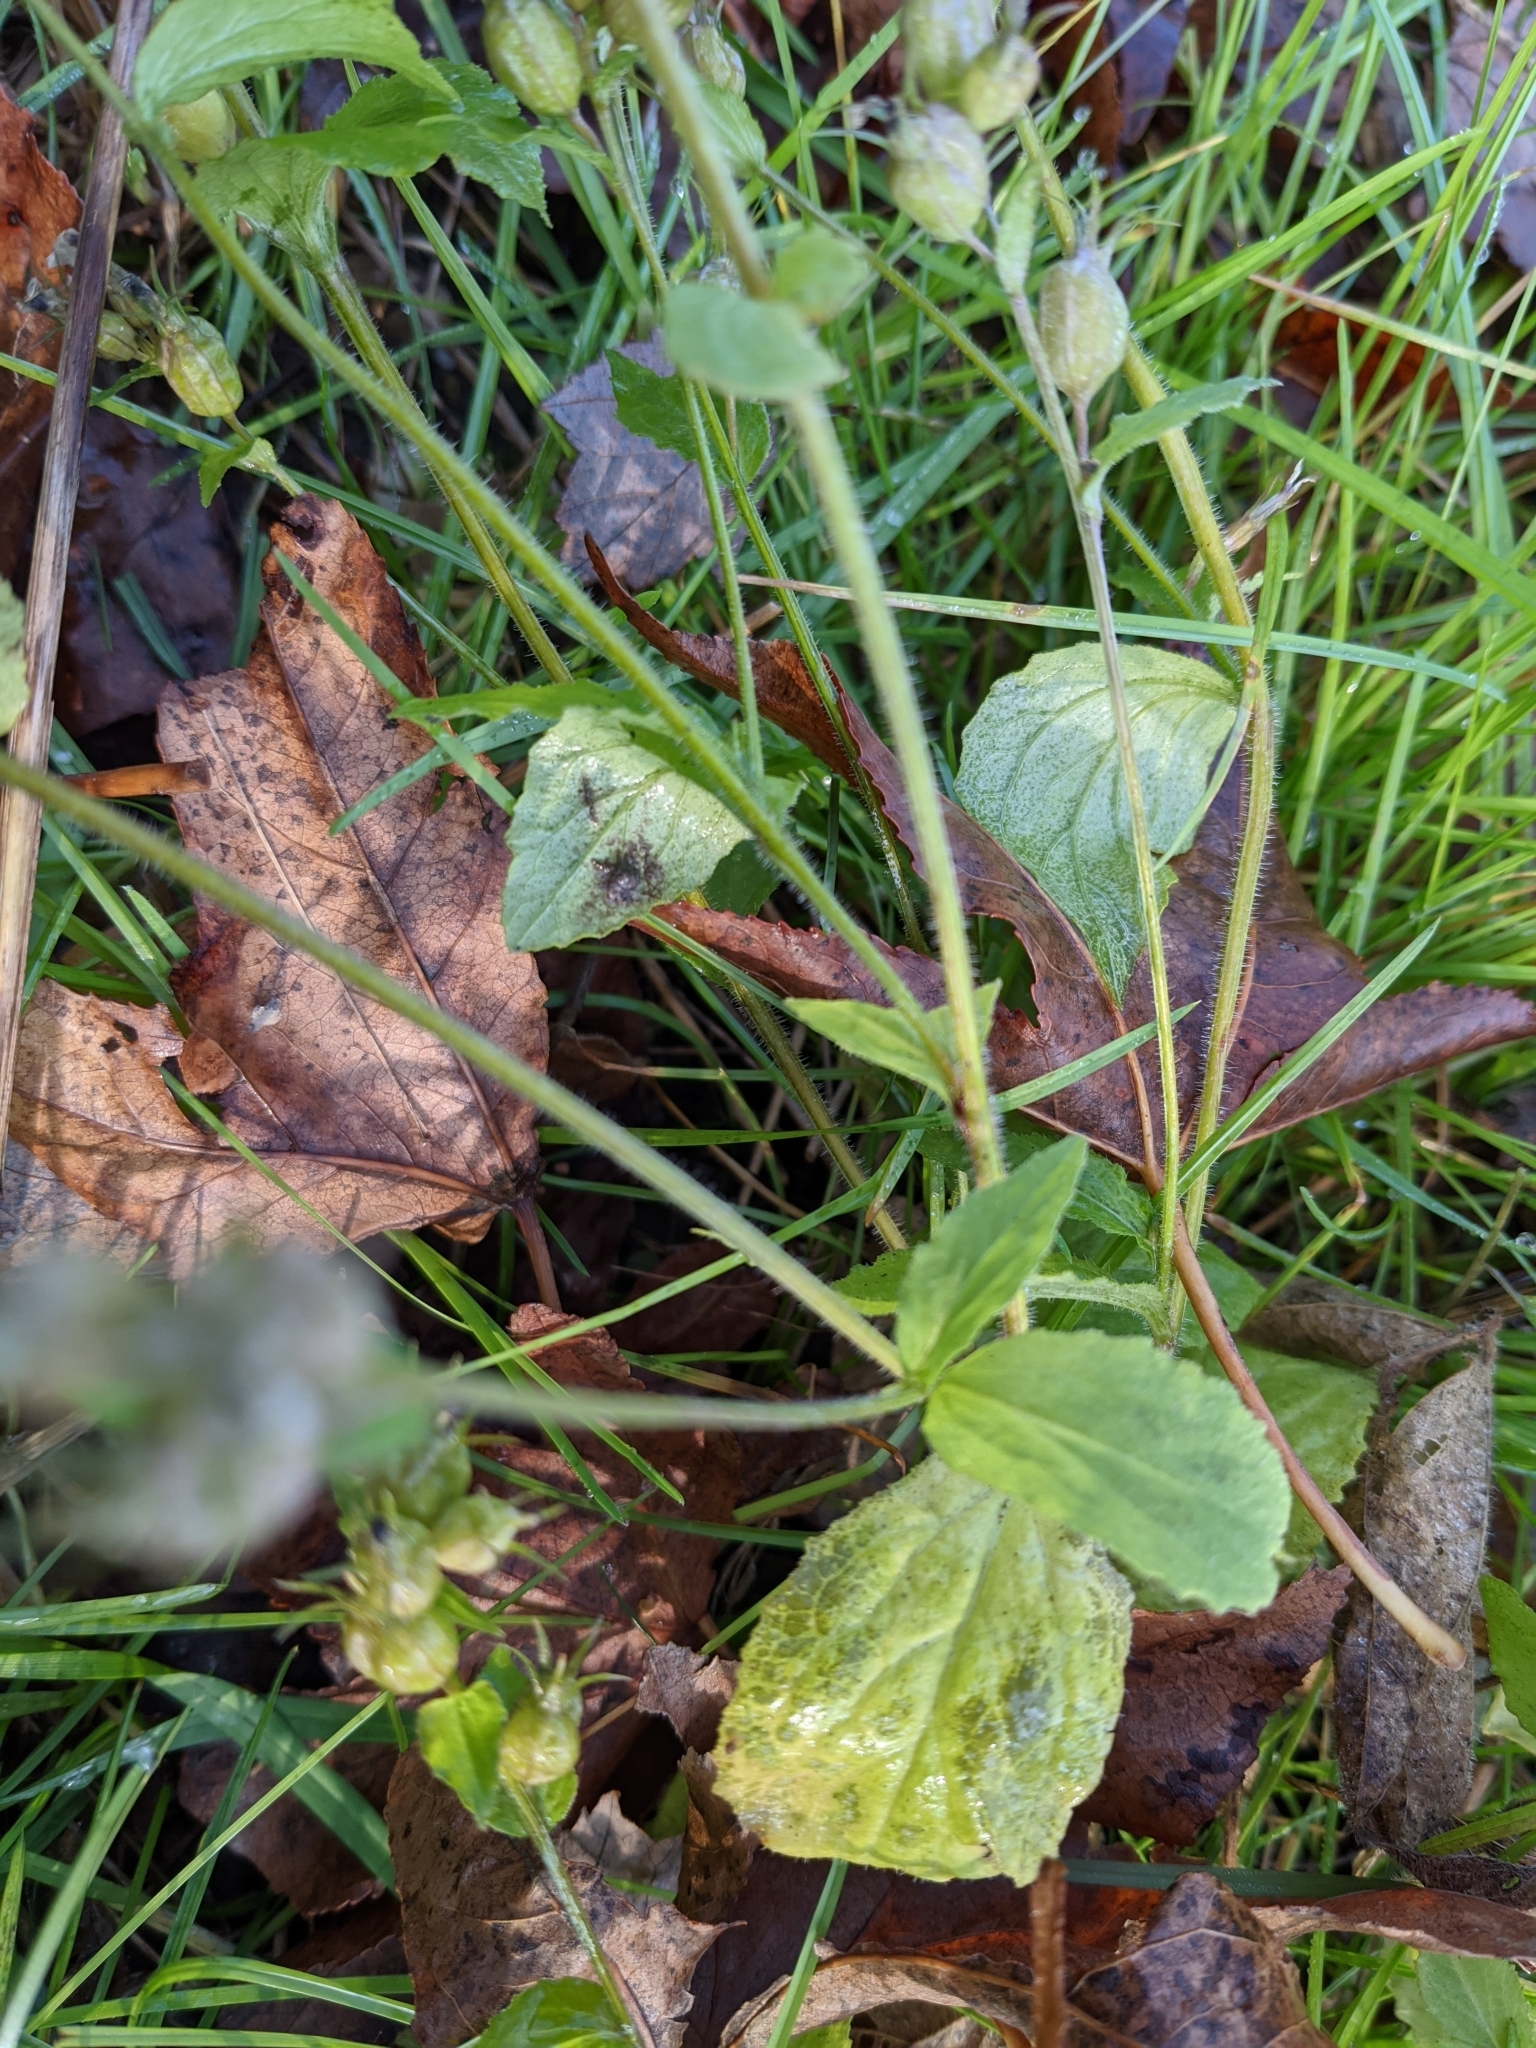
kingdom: Plantae
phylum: Tracheophyta
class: Magnoliopsida
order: Asterales
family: Campanulaceae
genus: Lobelia
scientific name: Lobelia inflata
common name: Indian tobacco
